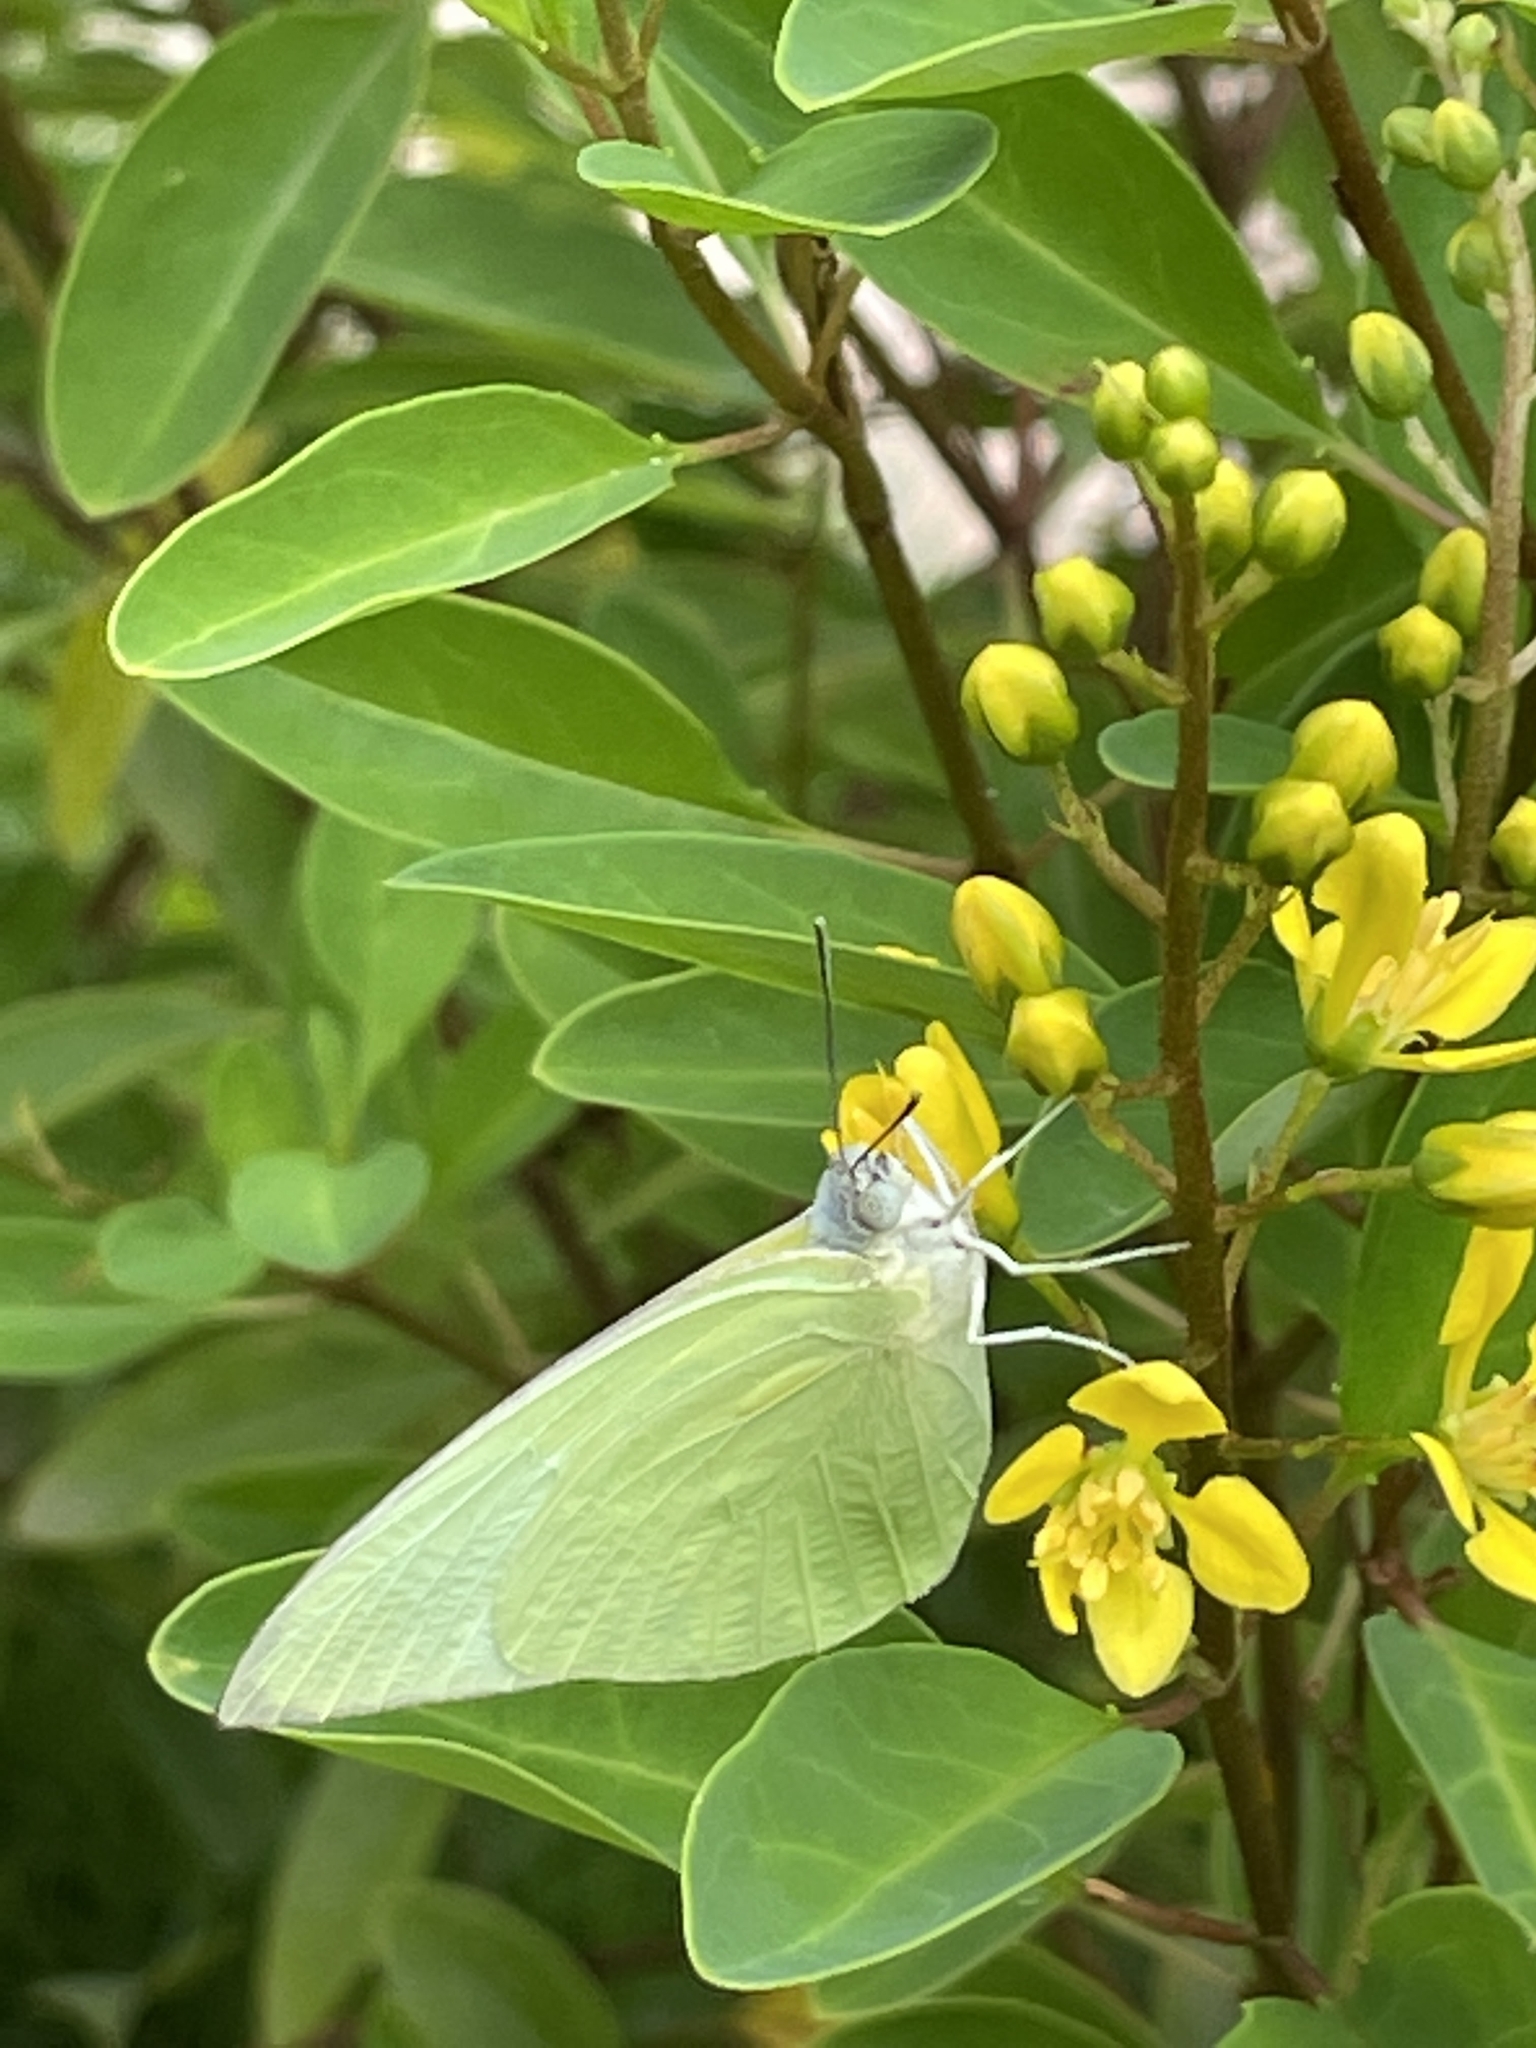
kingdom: Animalia
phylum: Arthropoda
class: Insecta
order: Lepidoptera
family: Pieridae
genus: Catopsilia
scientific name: Catopsilia pomona
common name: Common emigrant
